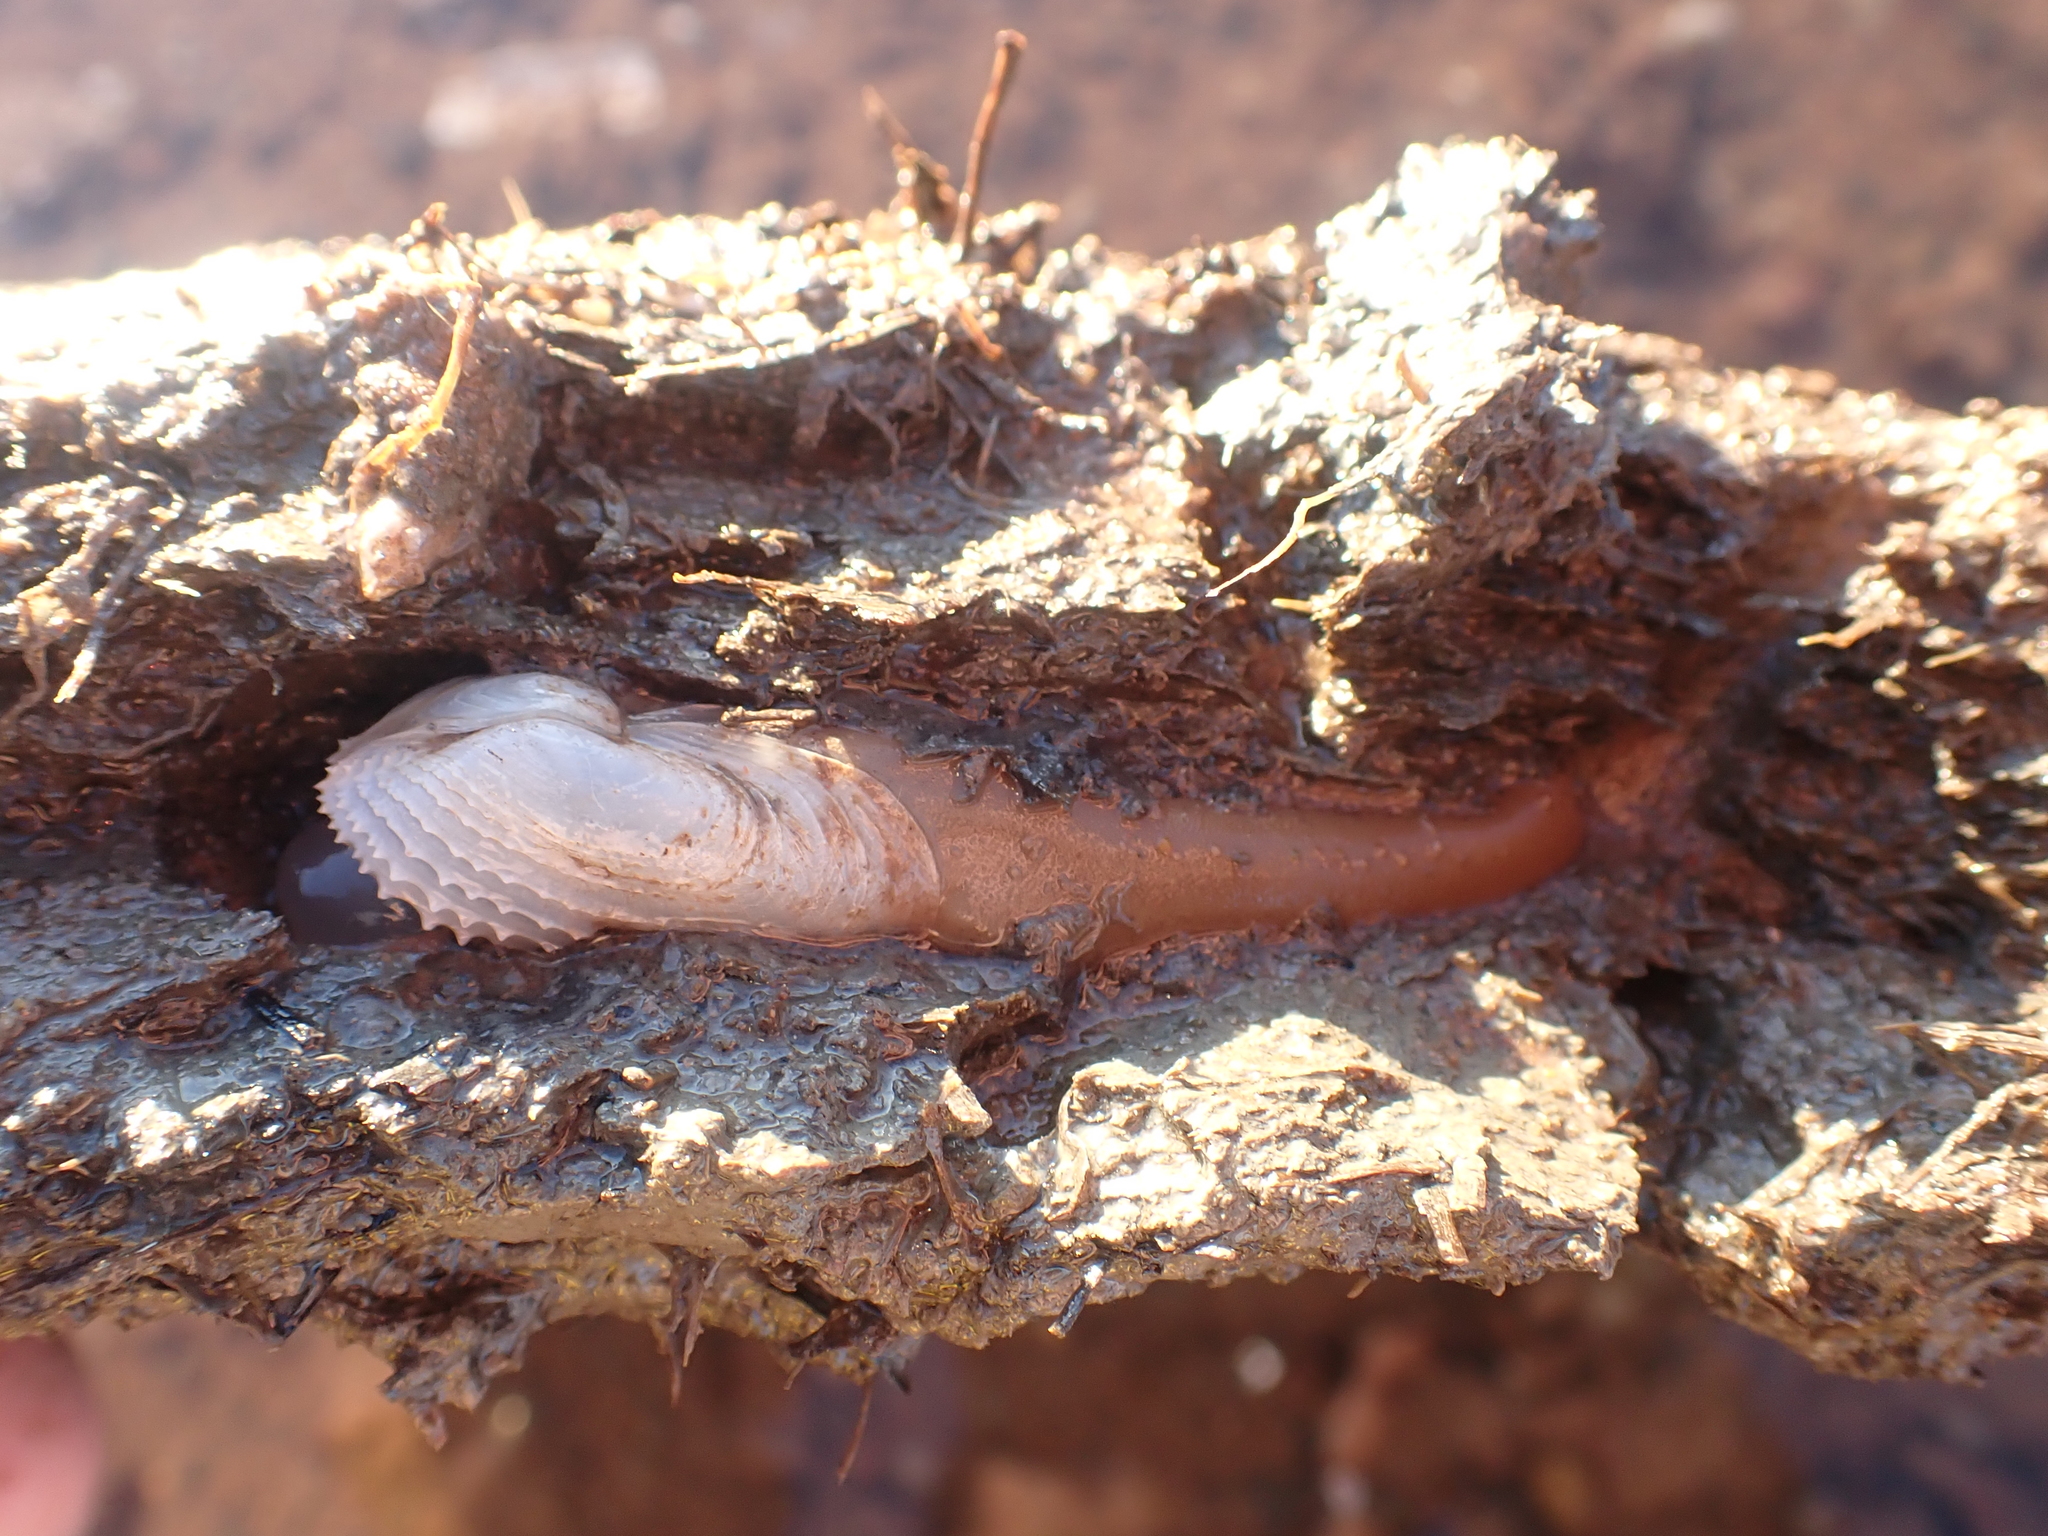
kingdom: Animalia
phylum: Mollusca
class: Bivalvia
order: Myida
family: Pholadidae
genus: Barnea
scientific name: Barnea truncata
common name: Atlantic mud piddock
